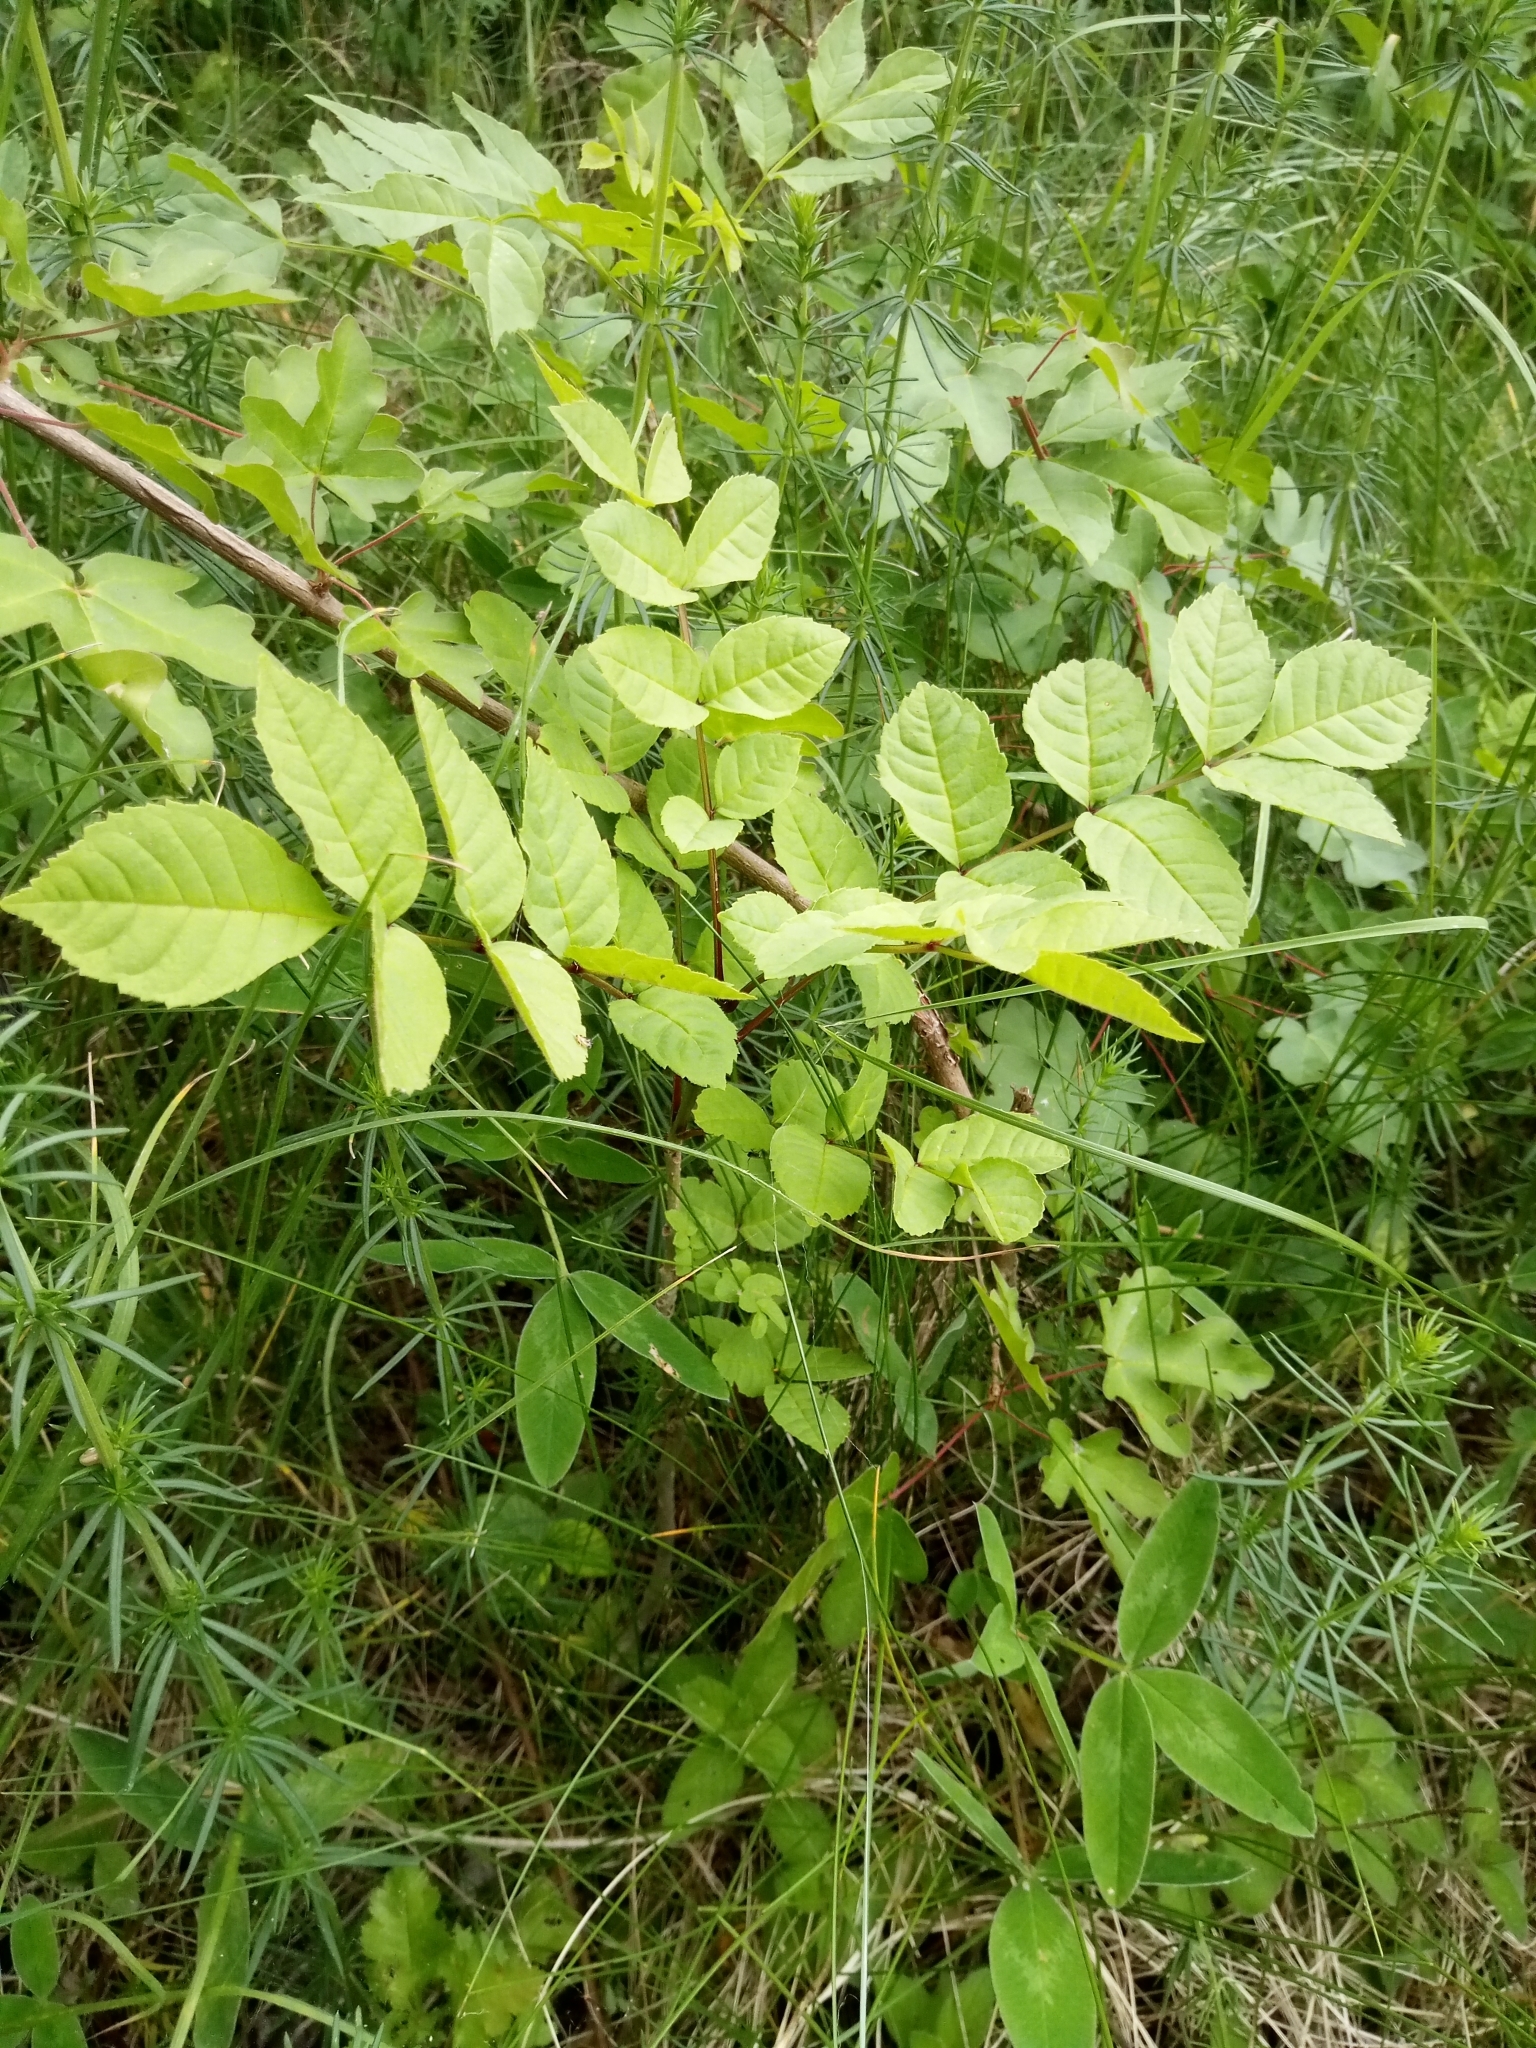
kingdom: Plantae
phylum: Tracheophyta
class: Magnoliopsida
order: Lamiales
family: Oleaceae
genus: Fraxinus
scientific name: Fraxinus excelsior
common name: European ash
